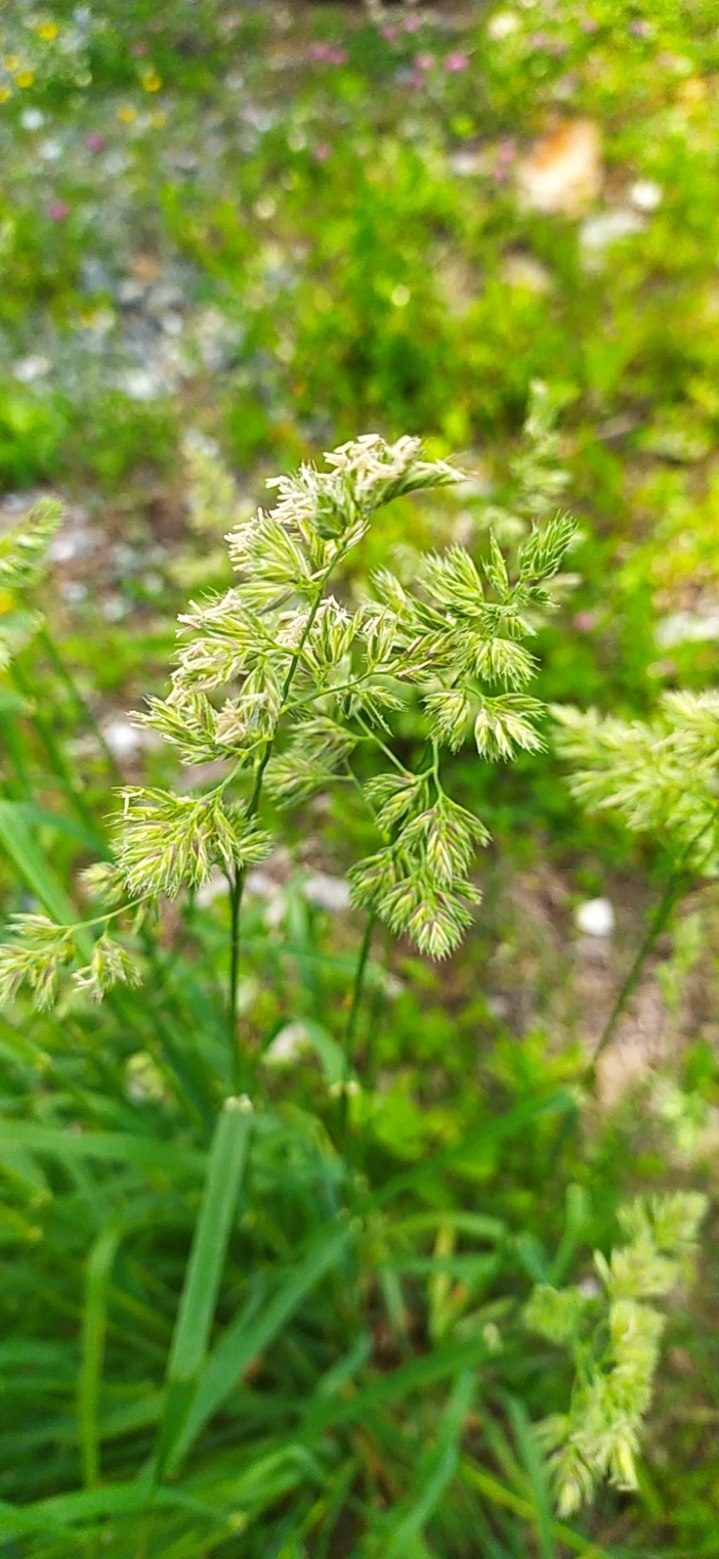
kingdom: Plantae
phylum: Tracheophyta
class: Liliopsida
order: Poales
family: Poaceae
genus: Dactylis
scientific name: Dactylis glomerata
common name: Orchardgrass
